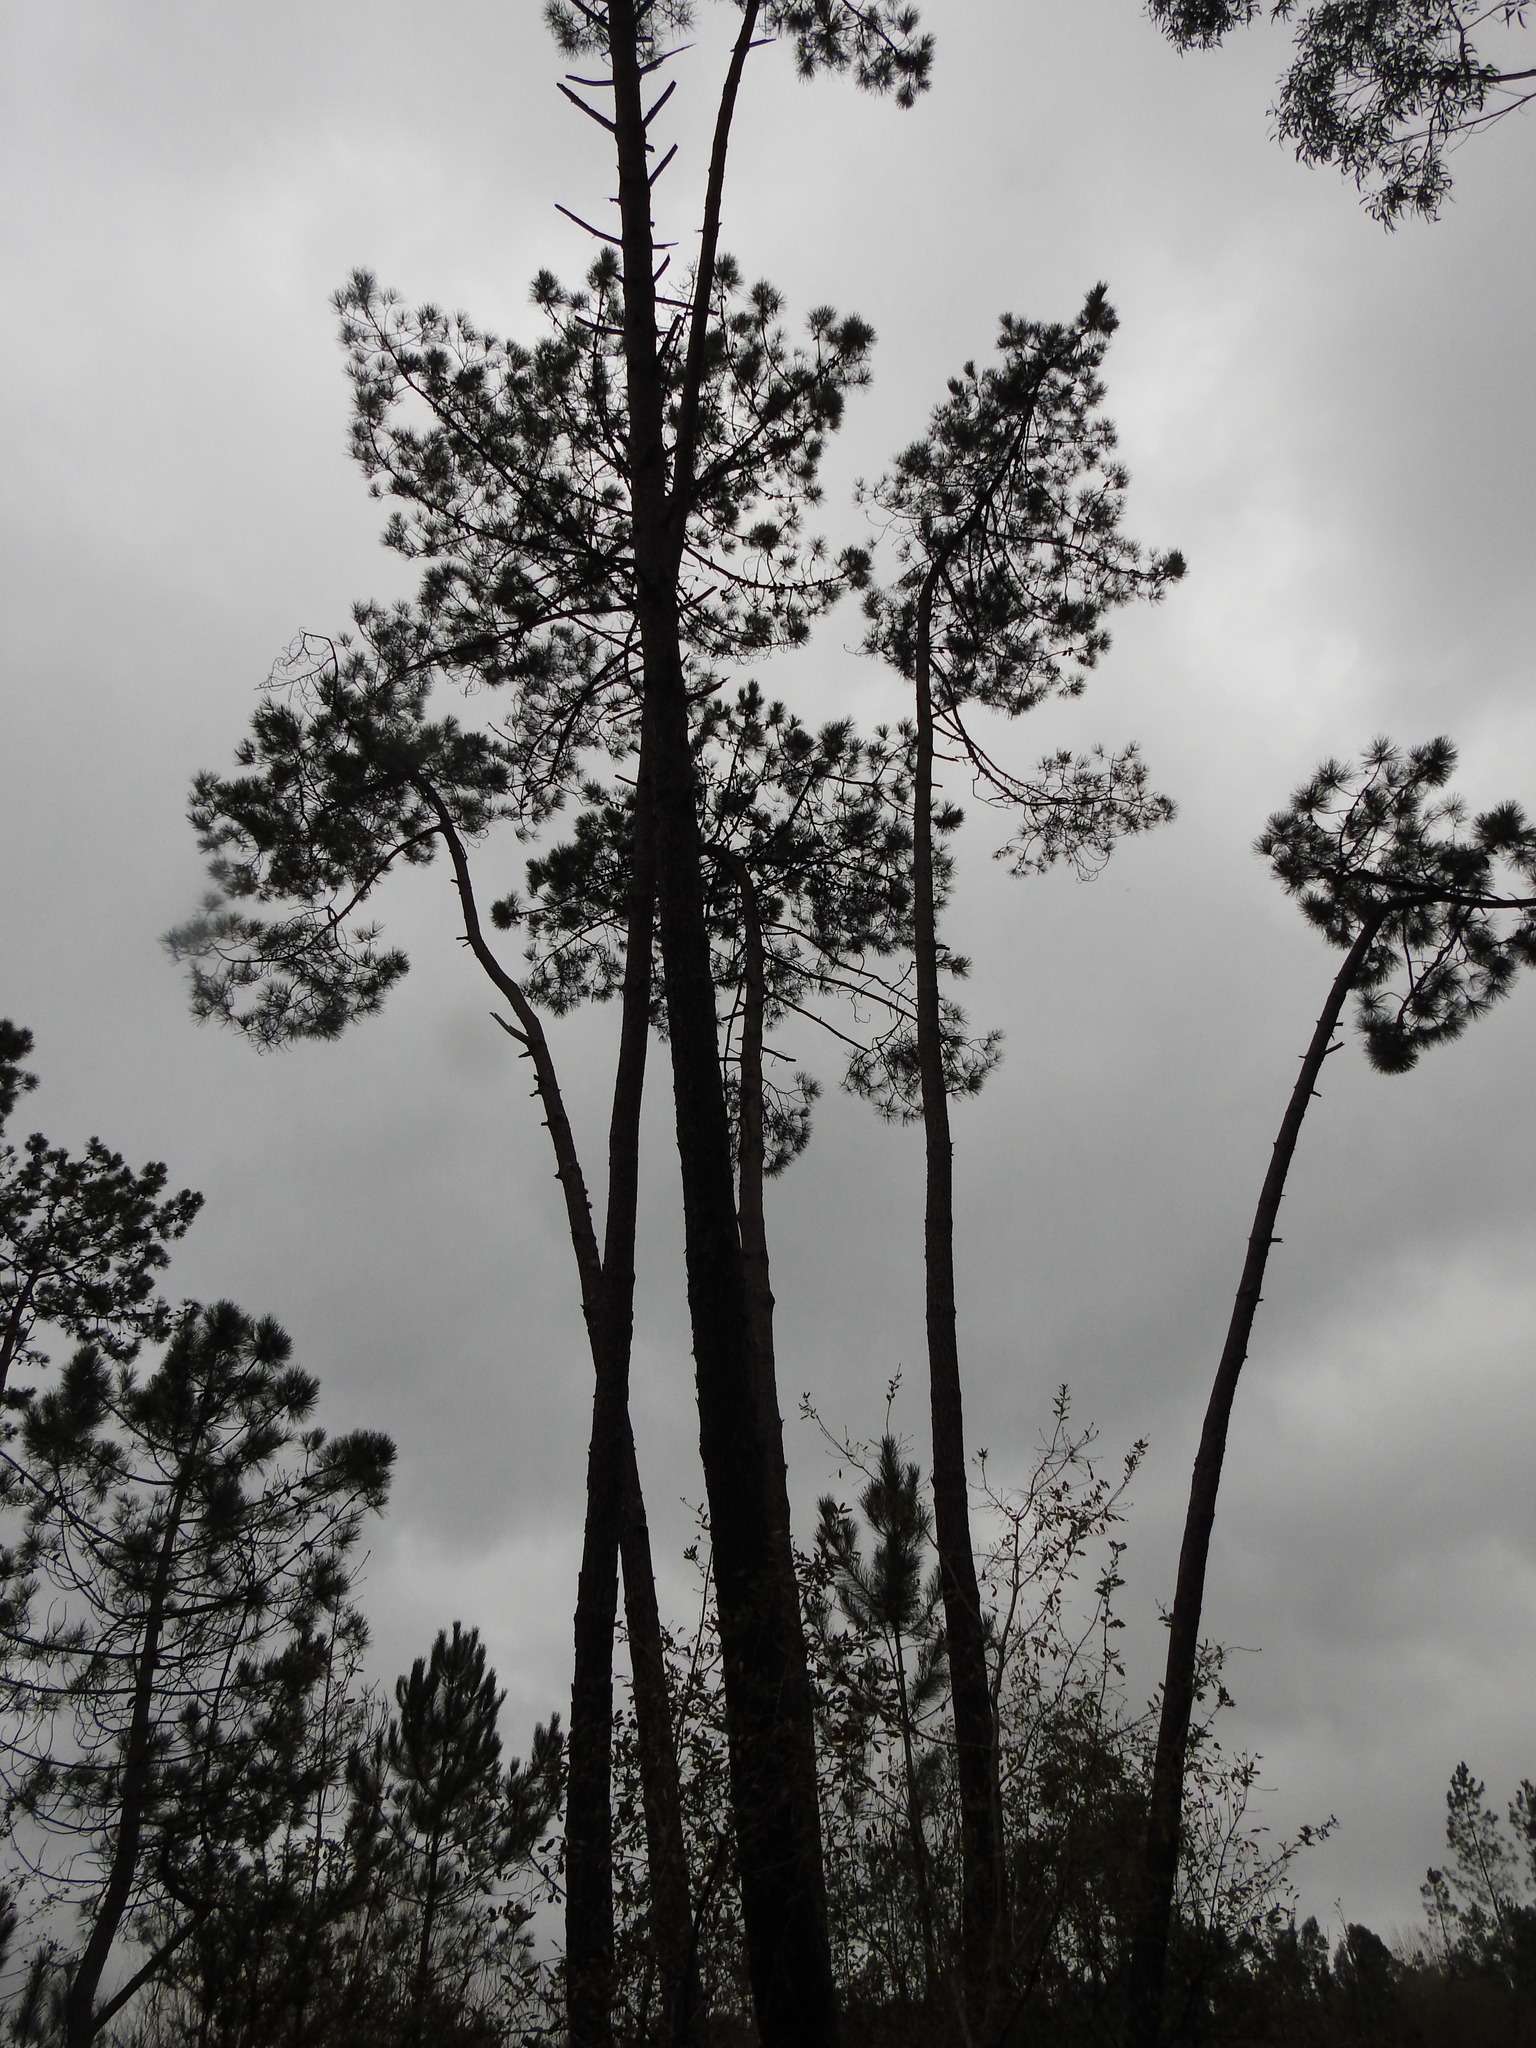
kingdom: Plantae
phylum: Tracheophyta
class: Pinopsida
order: Pinales
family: Pinaceae
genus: Pinus
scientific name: Pinus pinaster
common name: Maritime pine
